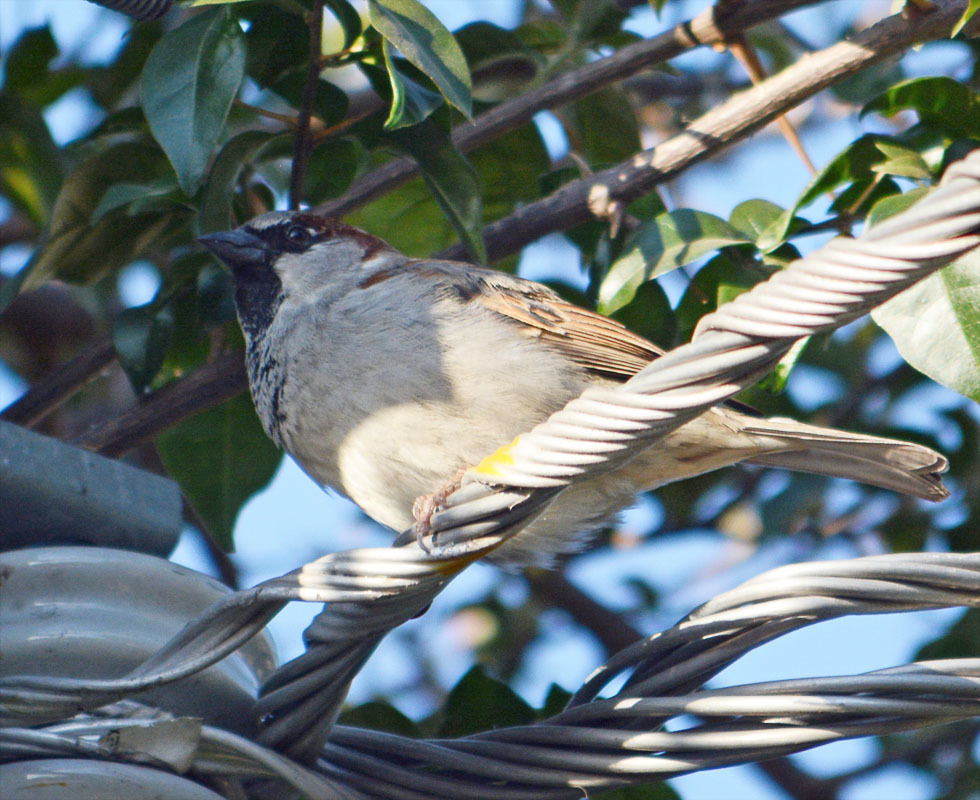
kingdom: Animalia
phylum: Chordata
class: Aves
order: Passeriformes
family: Passeridae
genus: Passer
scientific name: Passer domesticus
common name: House sparrow
